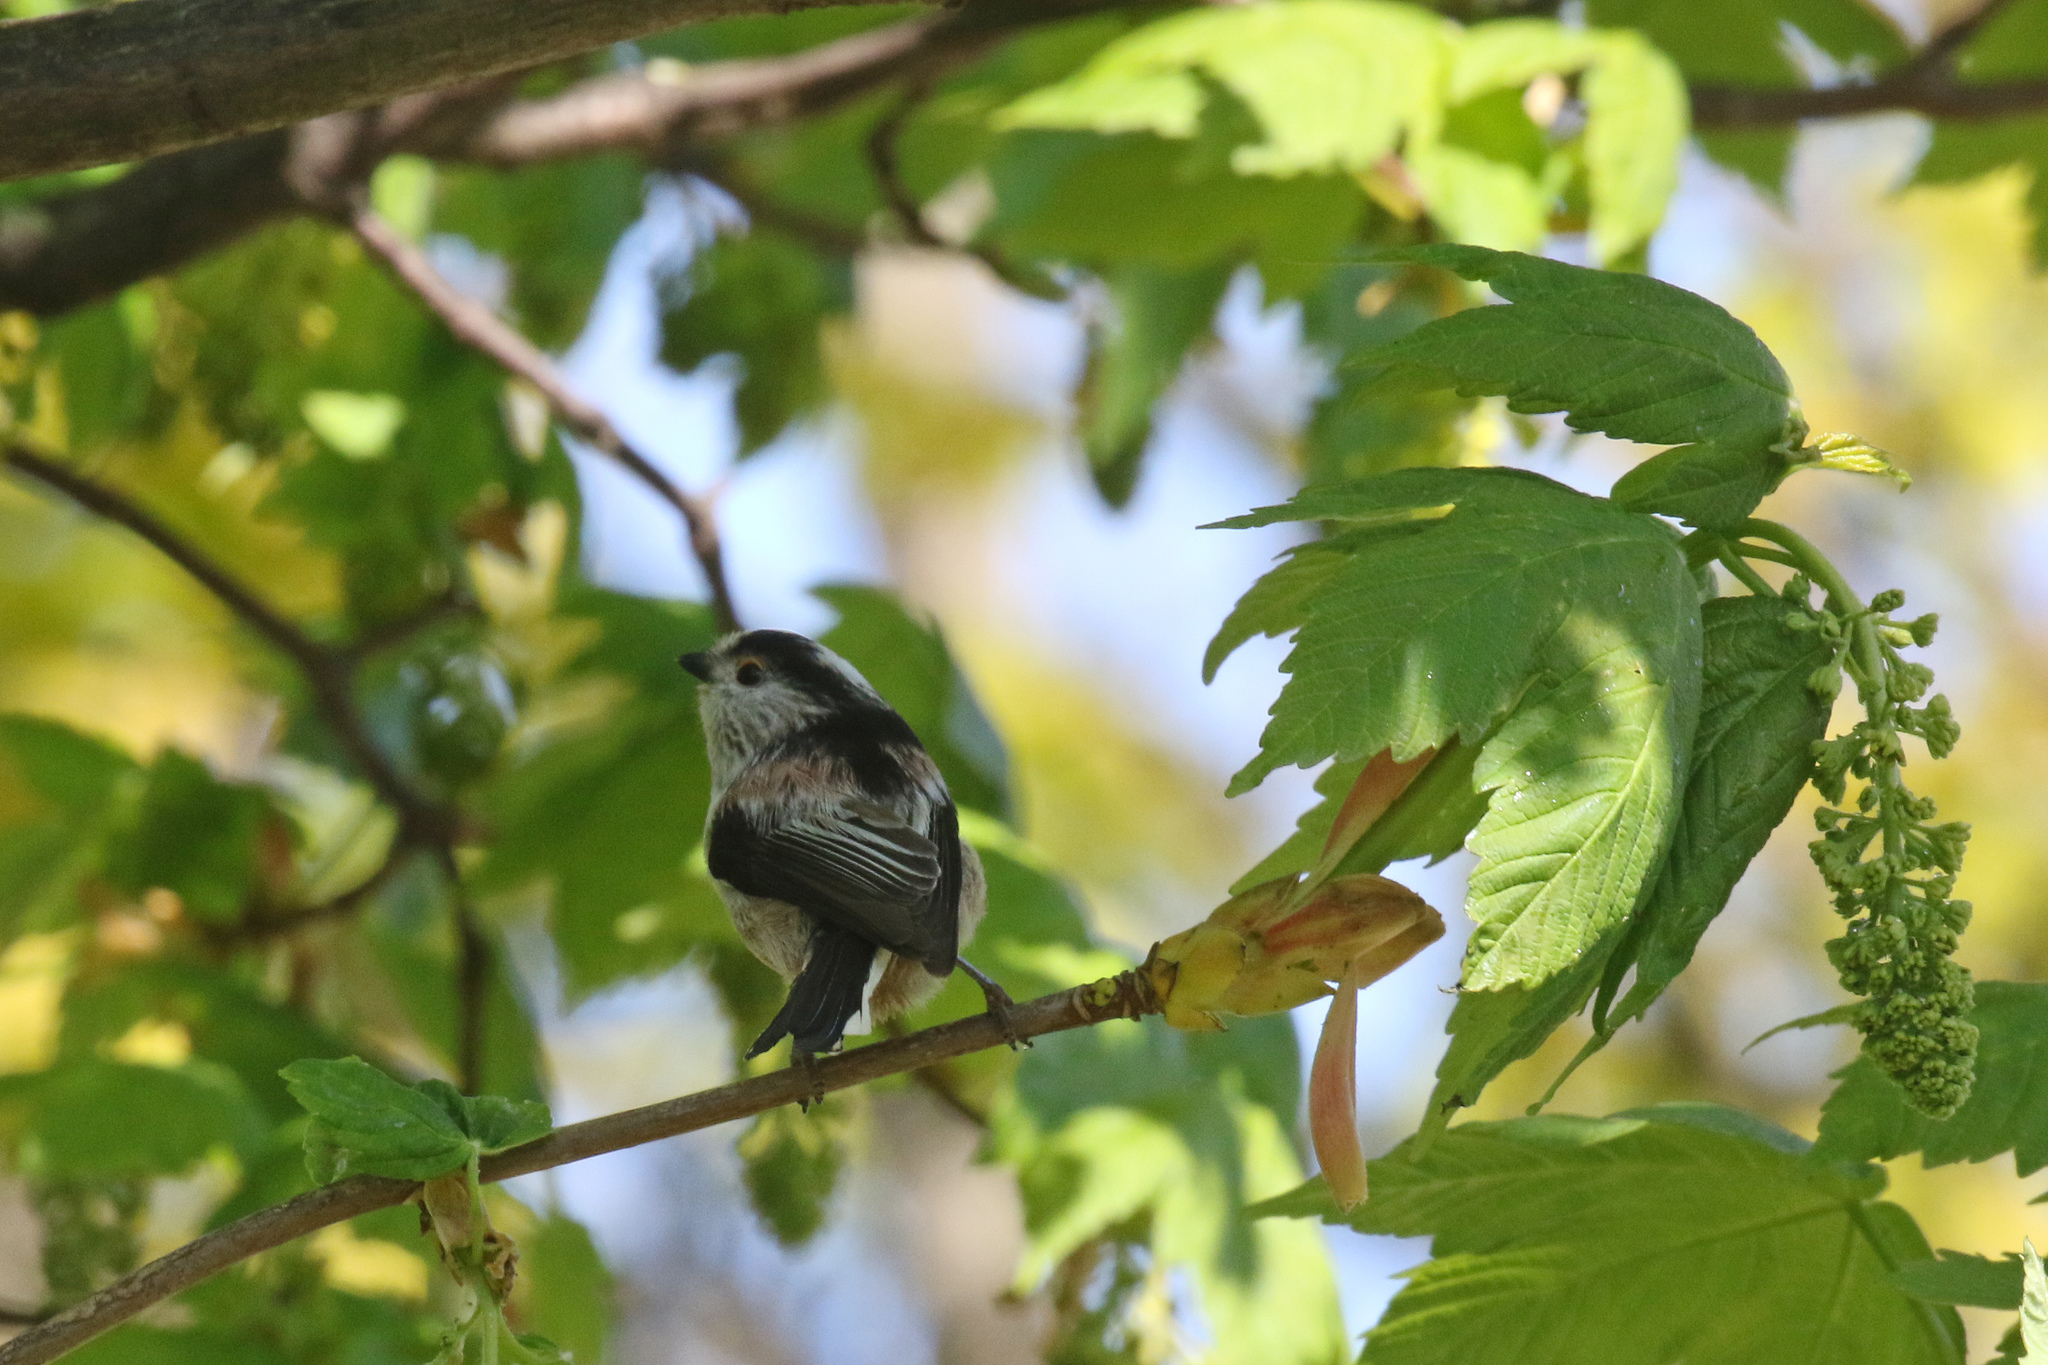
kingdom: Animalia
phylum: Chordata
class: Aves
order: Passeriformes
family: Aegithalidae
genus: Aegithalos
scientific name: Aegithalos caudatus
